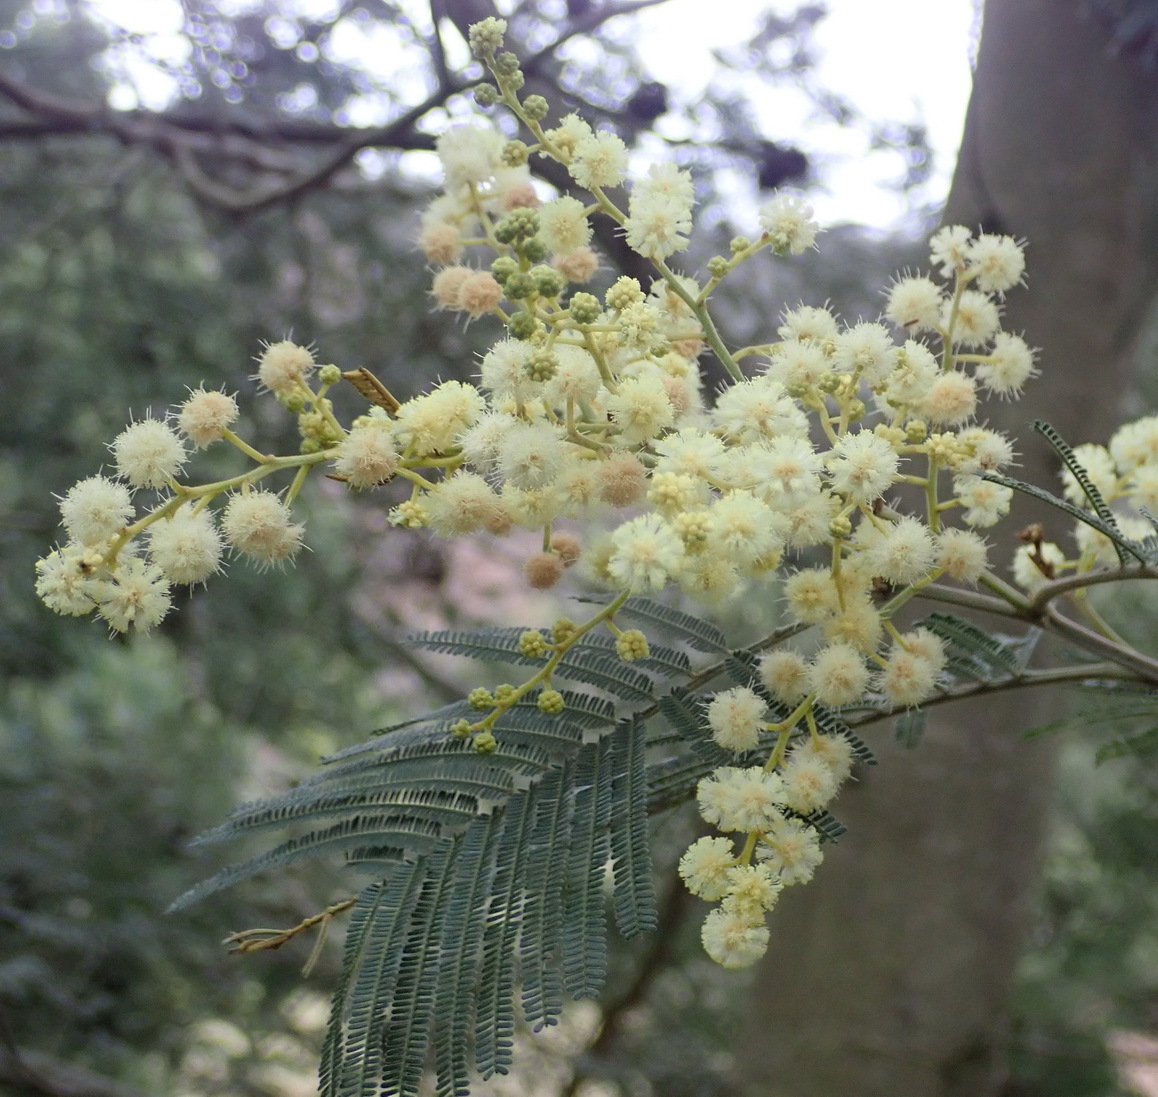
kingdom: Plantae
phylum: Tracheophyta
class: Magnoliopsida
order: Fabales
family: Fabaceae
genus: Acacia
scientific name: Acacia mearnsii
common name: Black wattle
